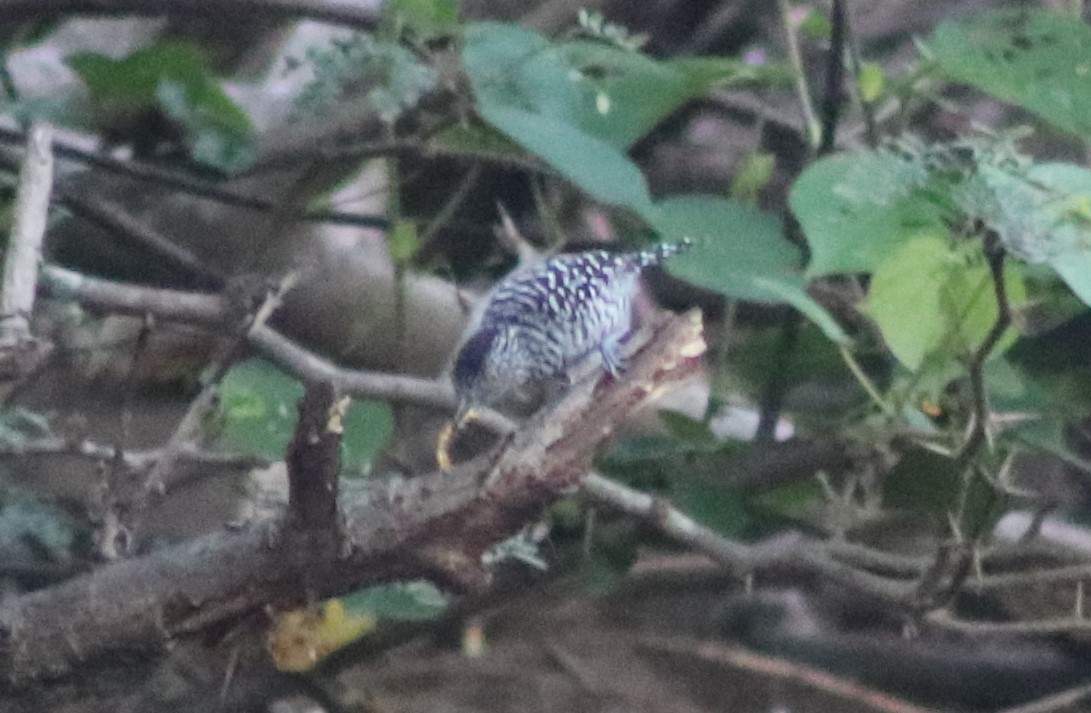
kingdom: Animalia
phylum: Chordata
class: Aves
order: Passeriformes
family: Thamnophilidae
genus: Thamnophilus
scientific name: Thamnophilus doliatus
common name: Barred antshrike
